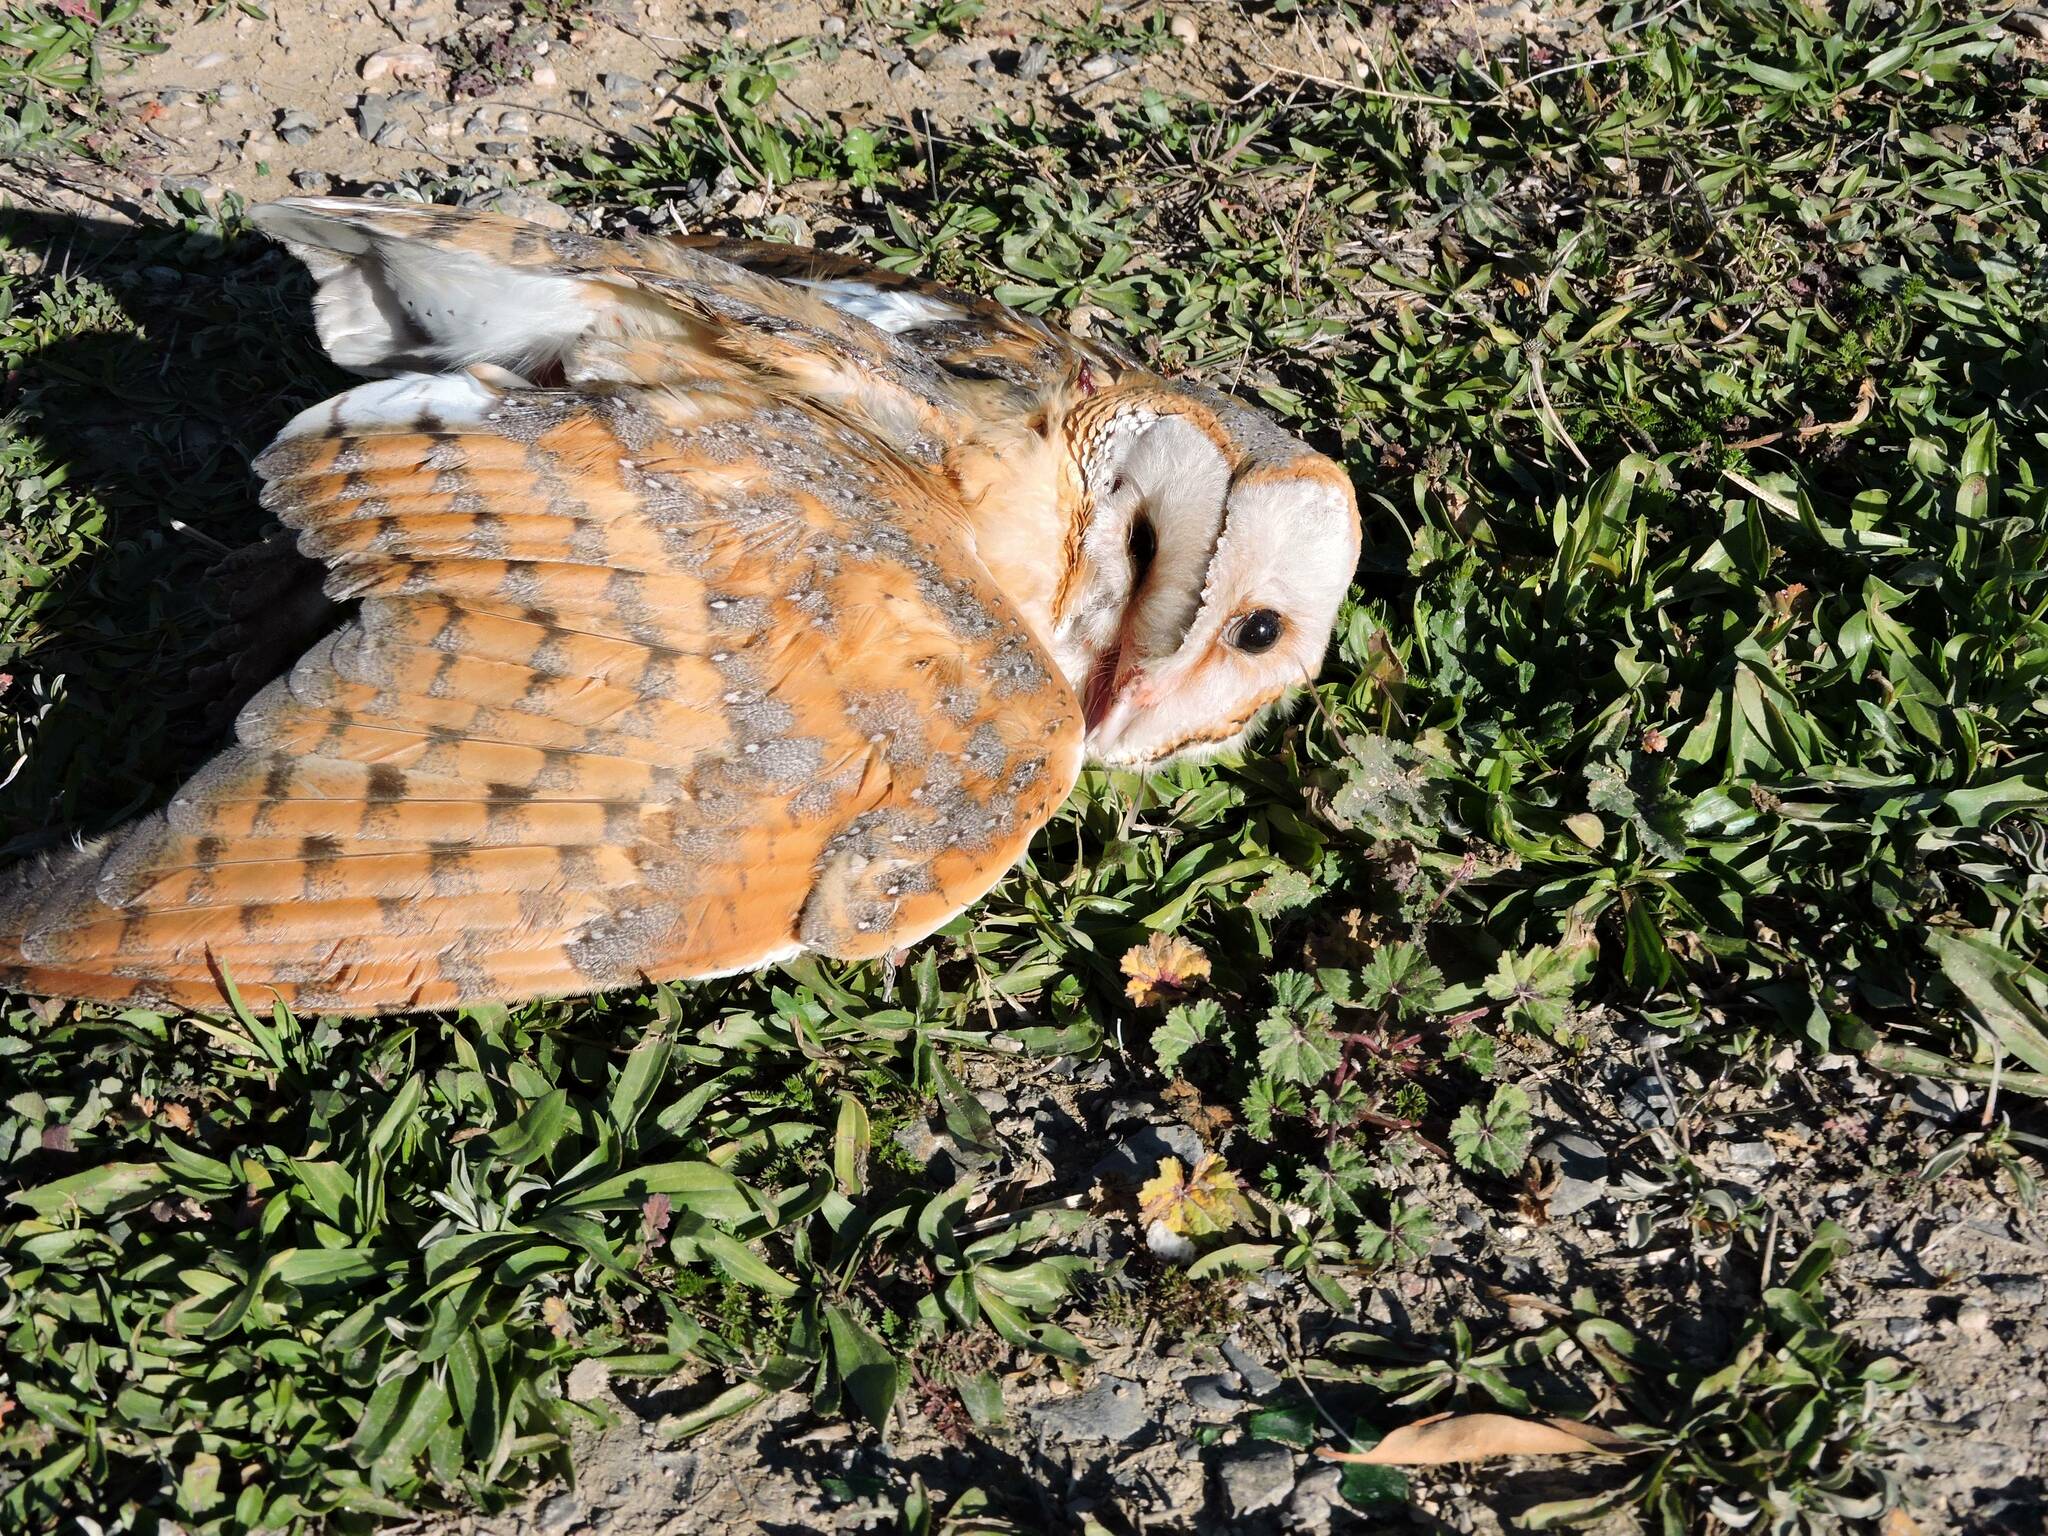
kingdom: Animalia
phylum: Chordata
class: Aves
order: Strigiformes
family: Tytonidae
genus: Tyto
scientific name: Tyto alba
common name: Barn owl
